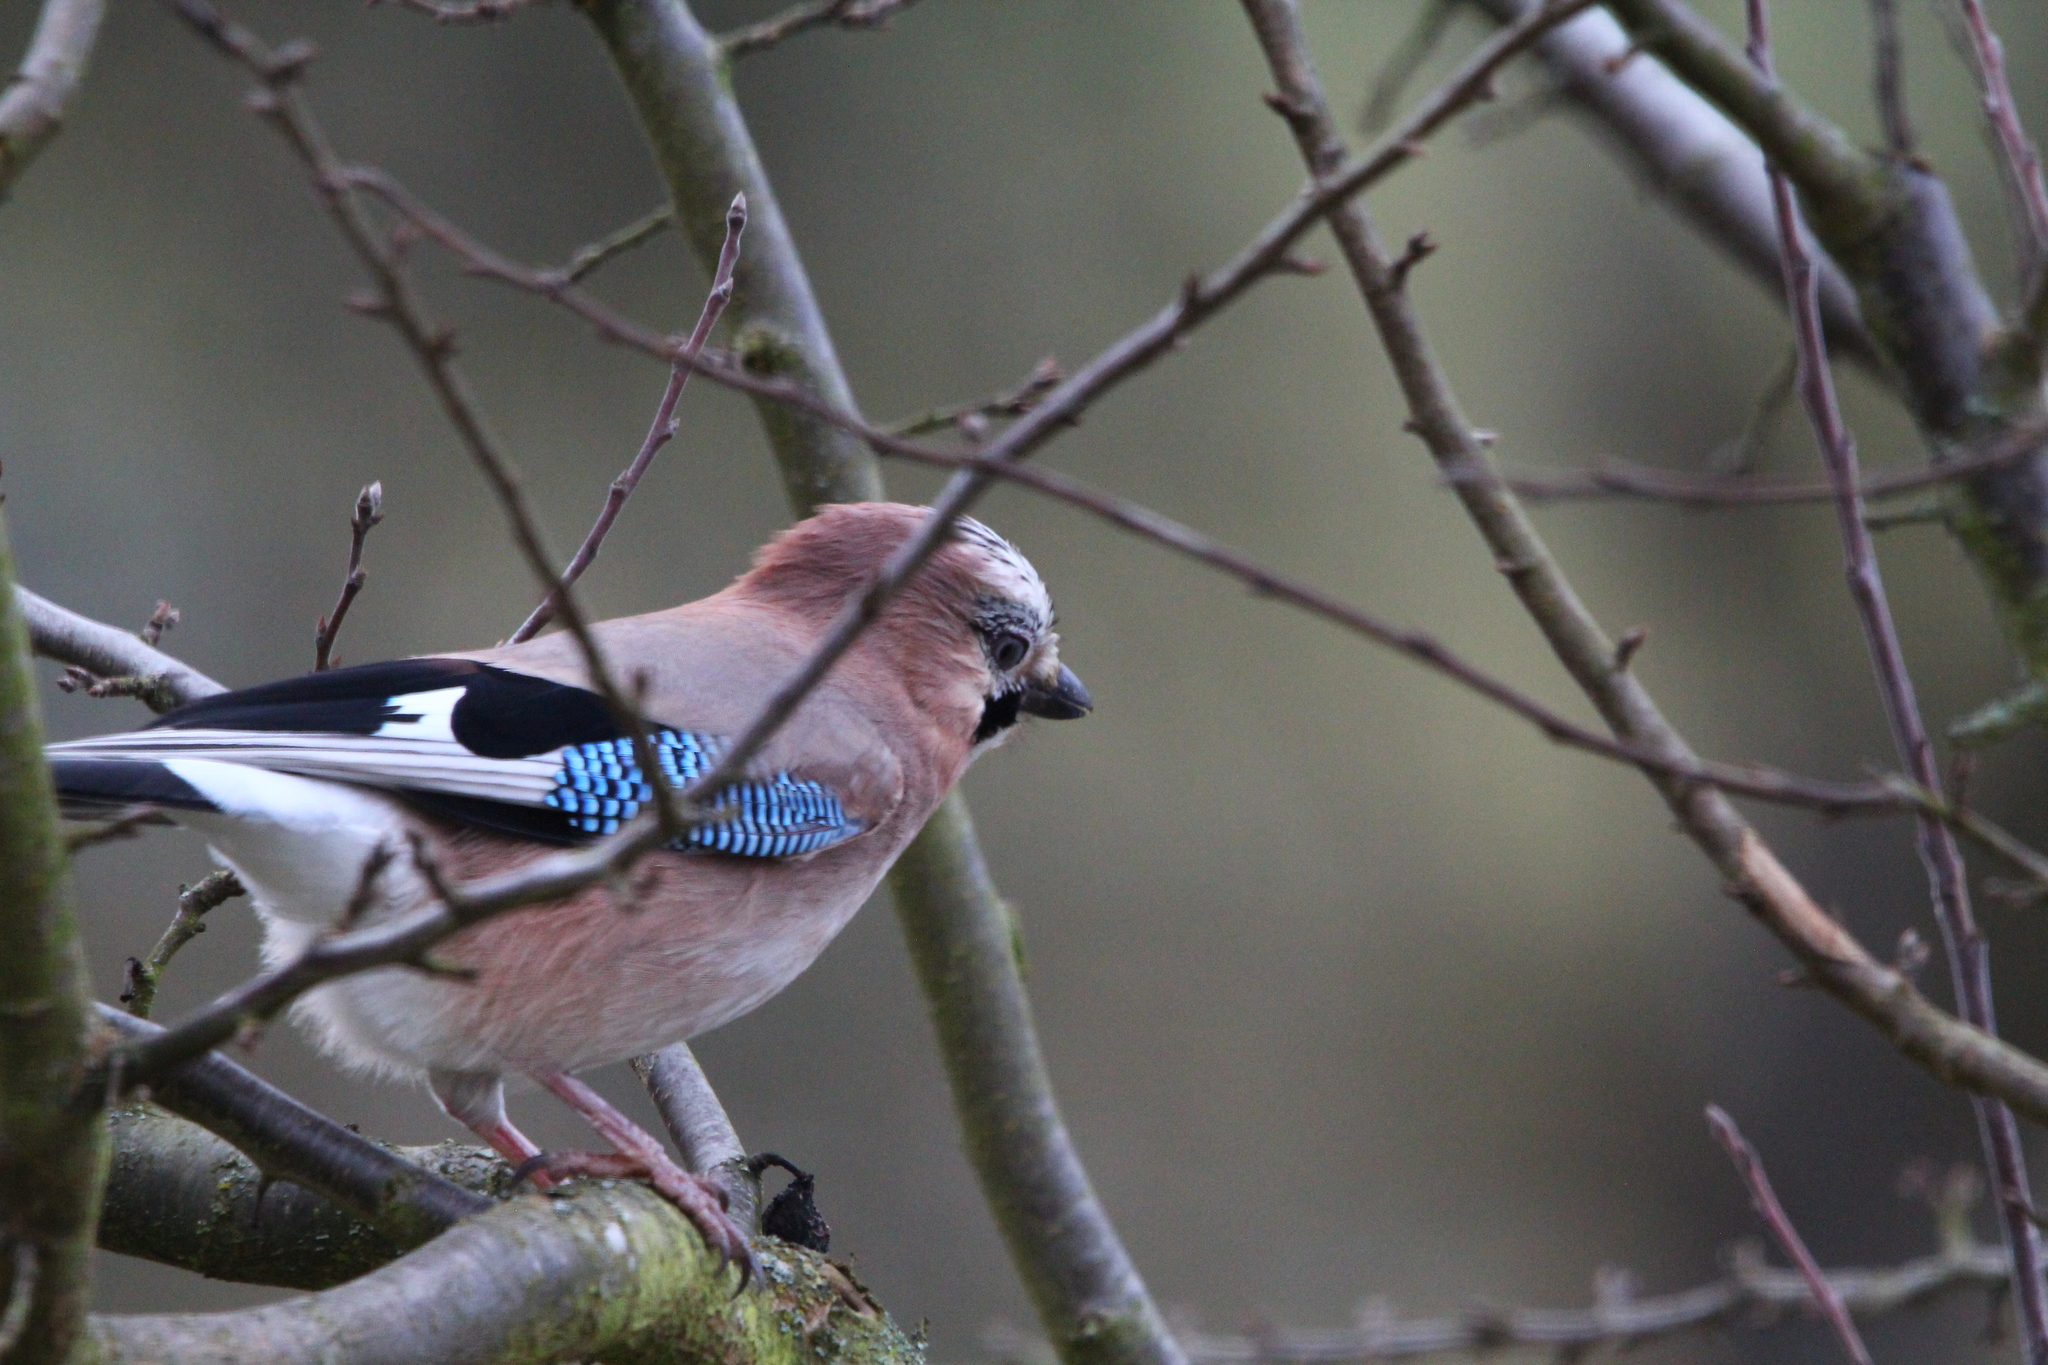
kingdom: Animalia
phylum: Chordata
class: Aves
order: Passeriformes
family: Corvidae
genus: Garrulus
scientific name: Garrulus glandarius
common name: Eurasian jay
